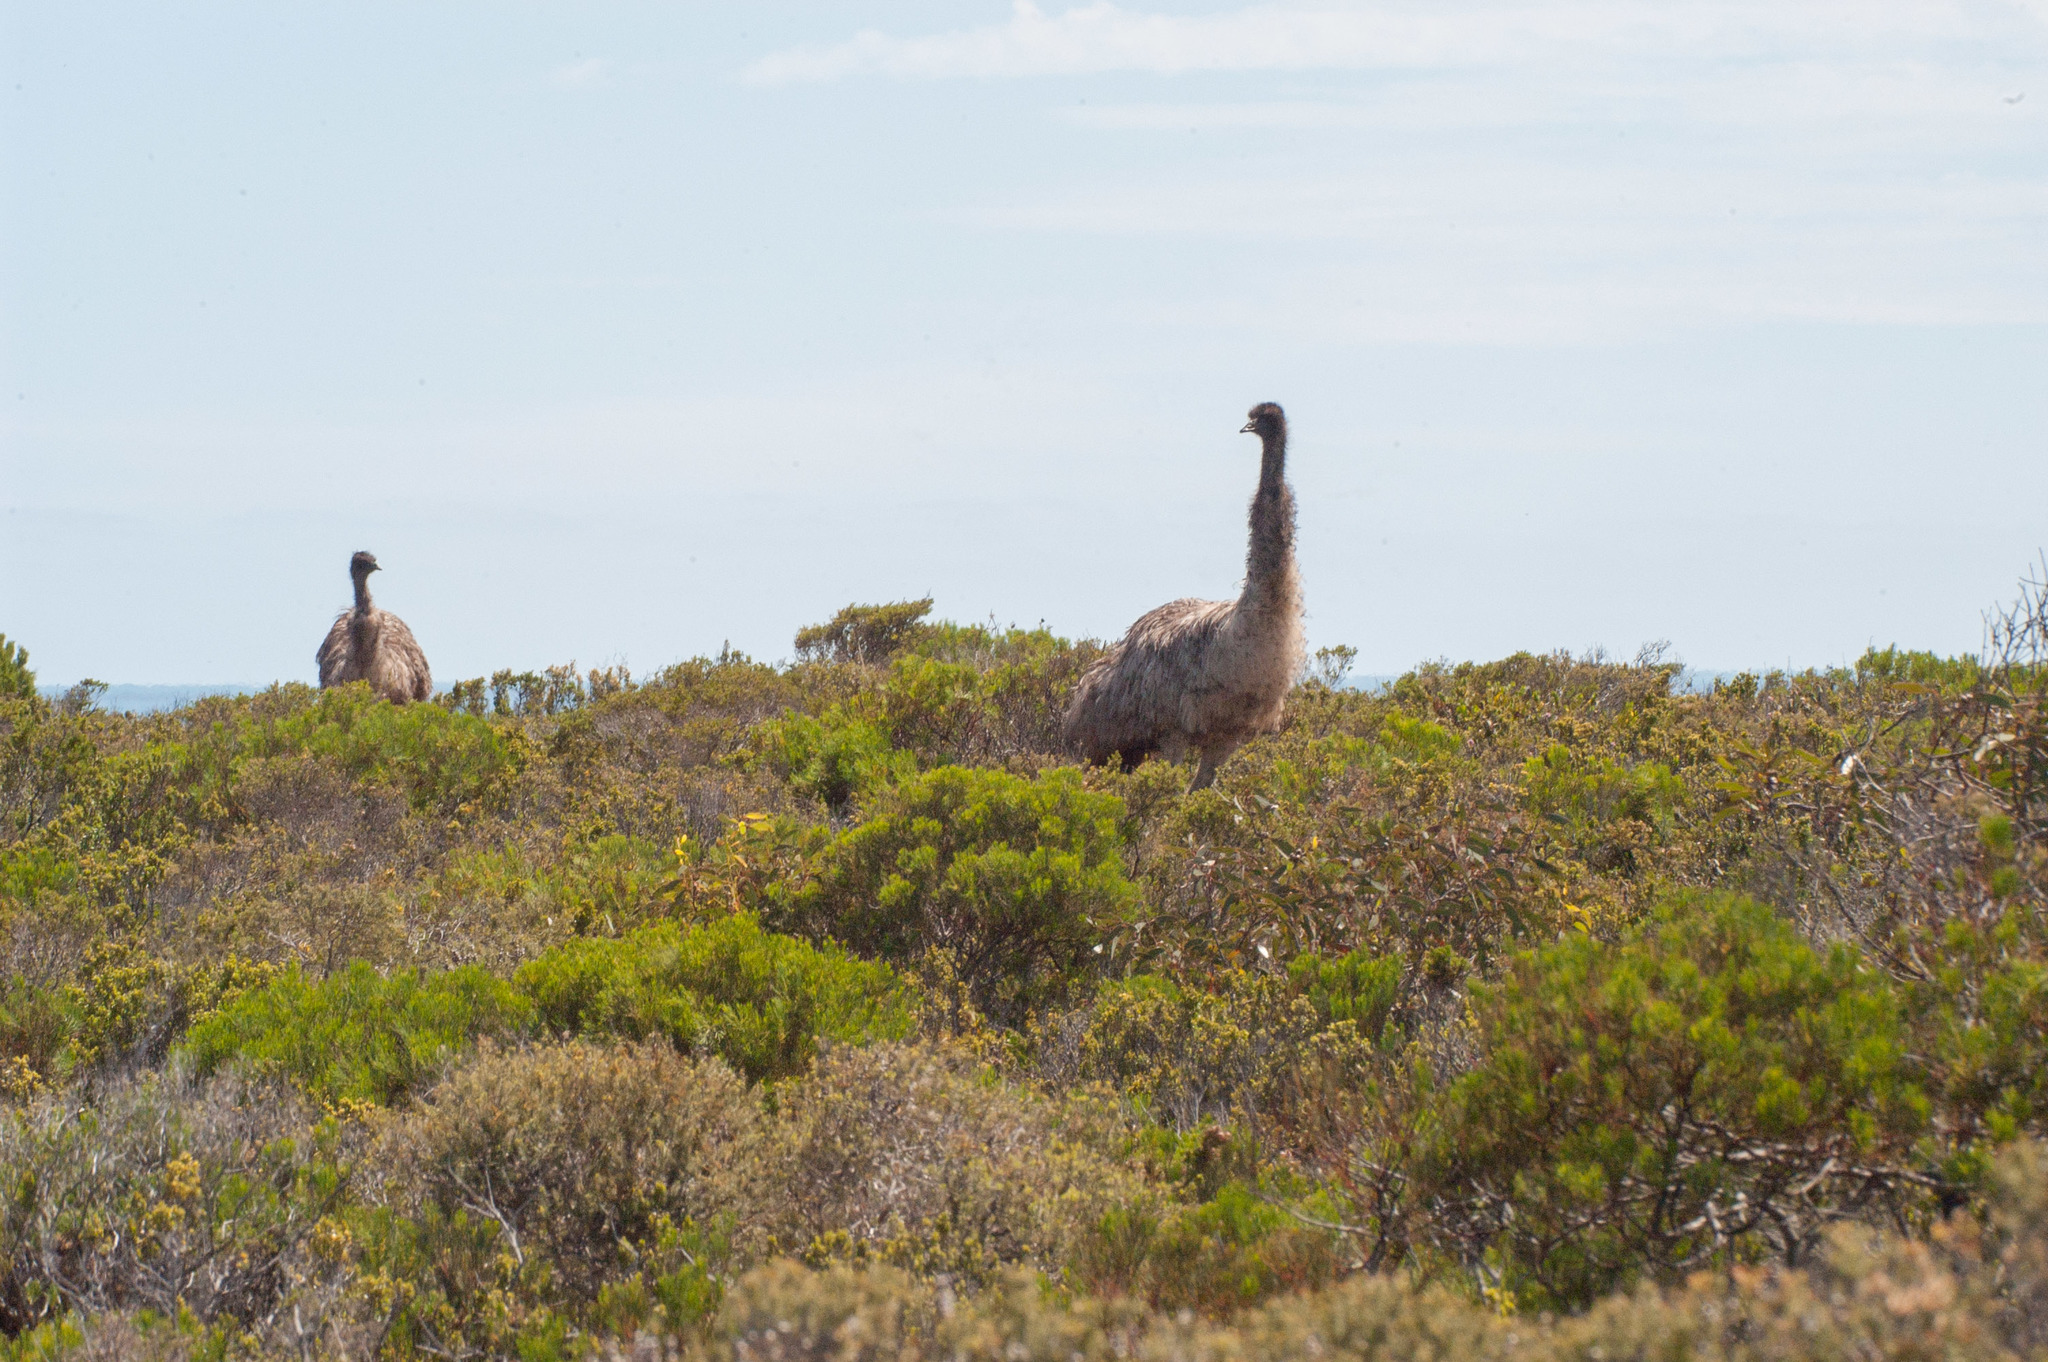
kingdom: Animalia
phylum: Chordata
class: Aves
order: Casuariiformes
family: Dromaiidae
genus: Dromaius
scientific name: Dromaius novaehollandiae
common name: Emu
